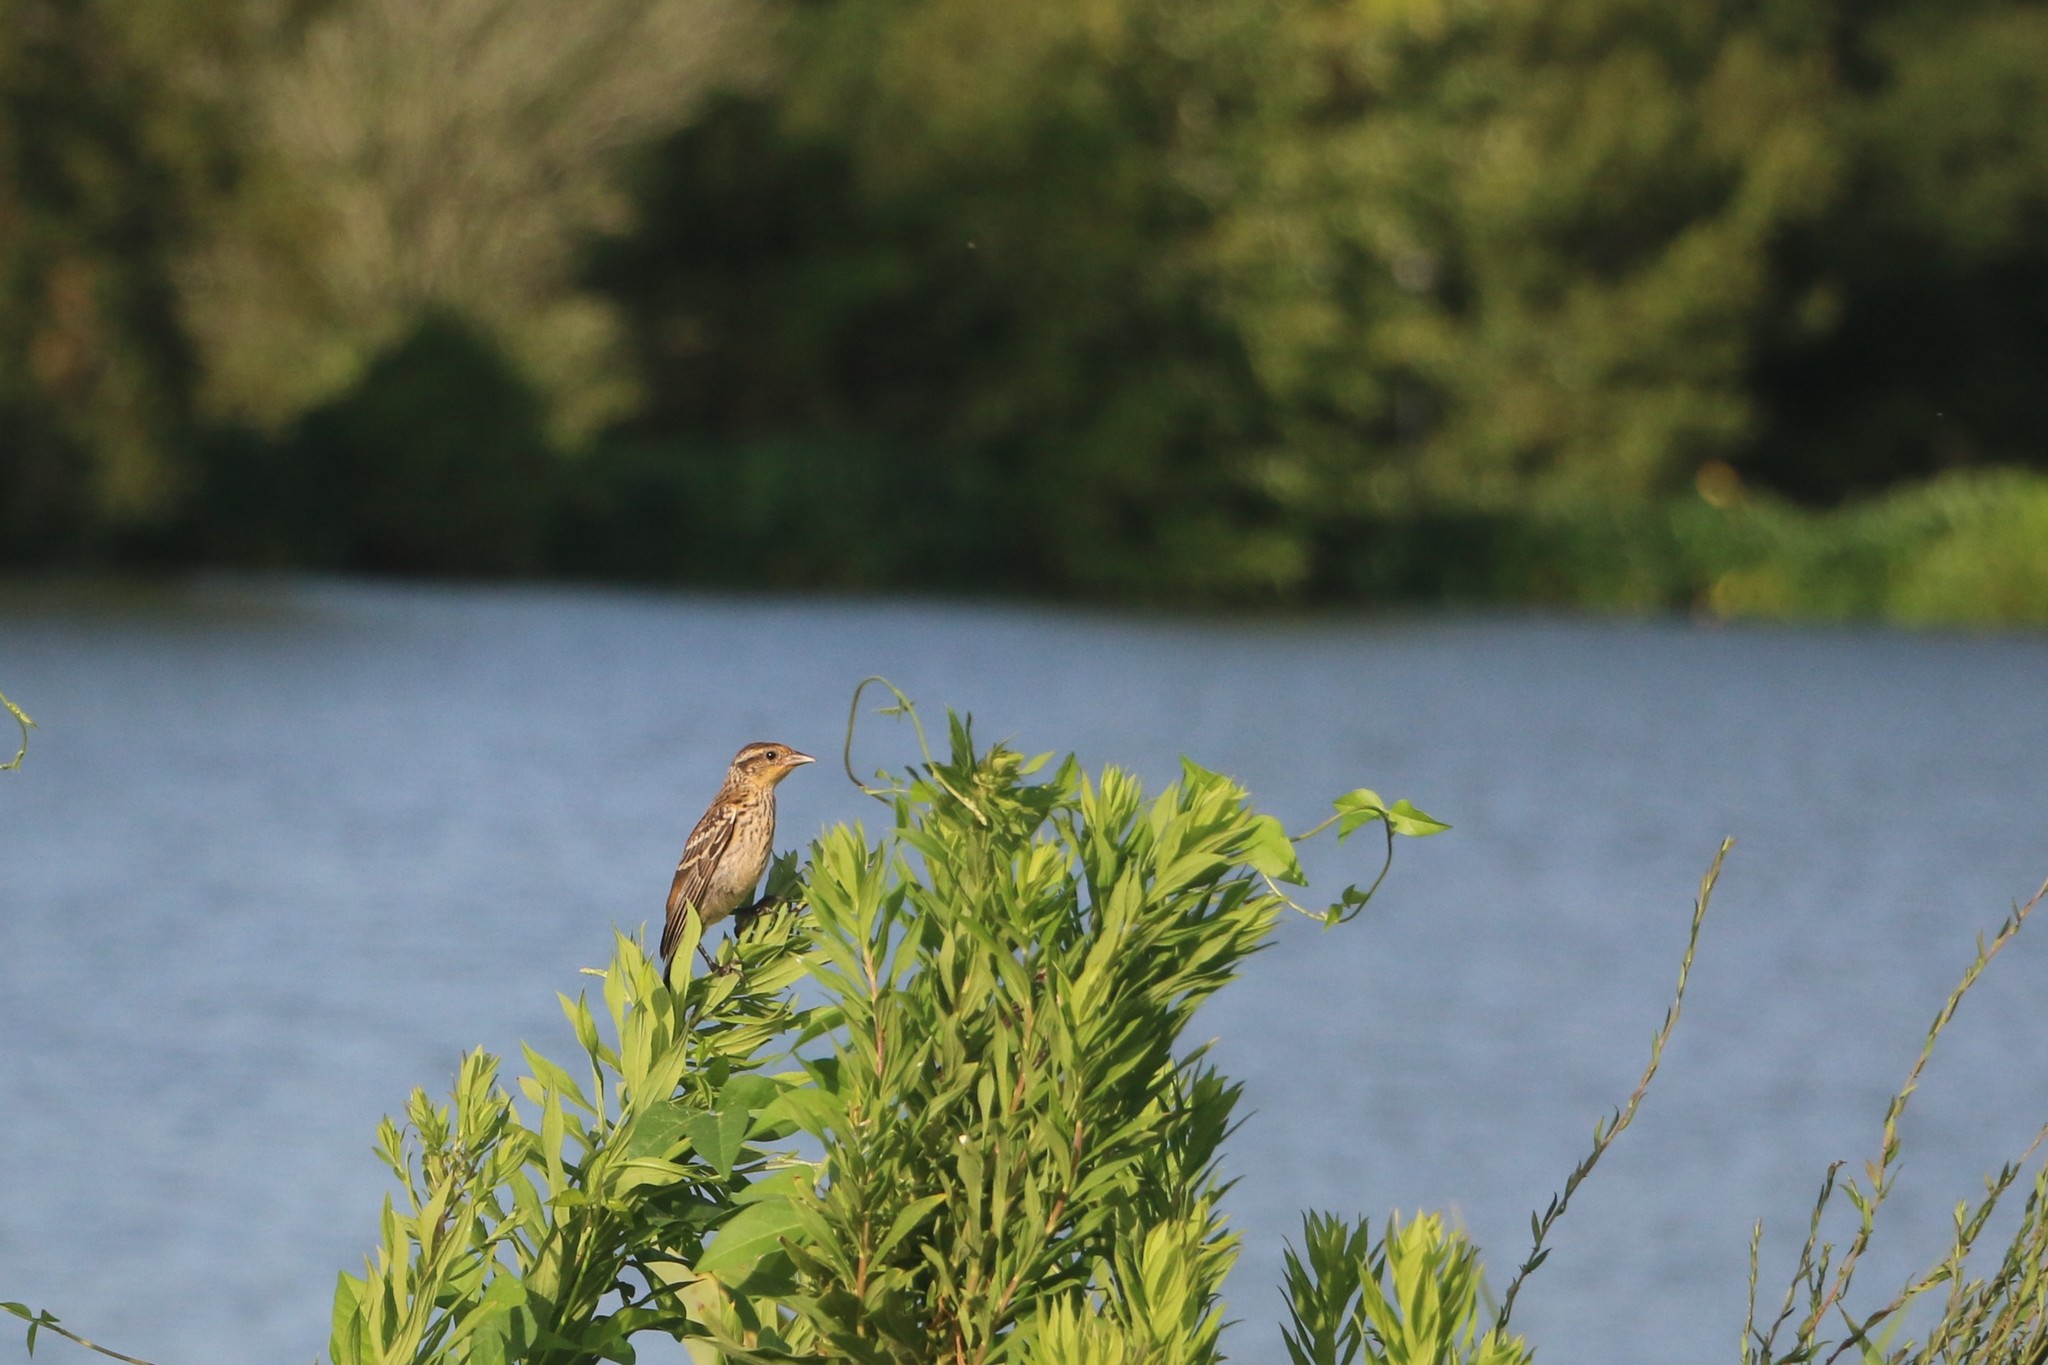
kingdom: Animalia
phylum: Chordata
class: Aves
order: Passeriformes
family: Icteridae
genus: Agelaius
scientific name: Agelaius phoeniceus
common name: Red-winged blackbird
